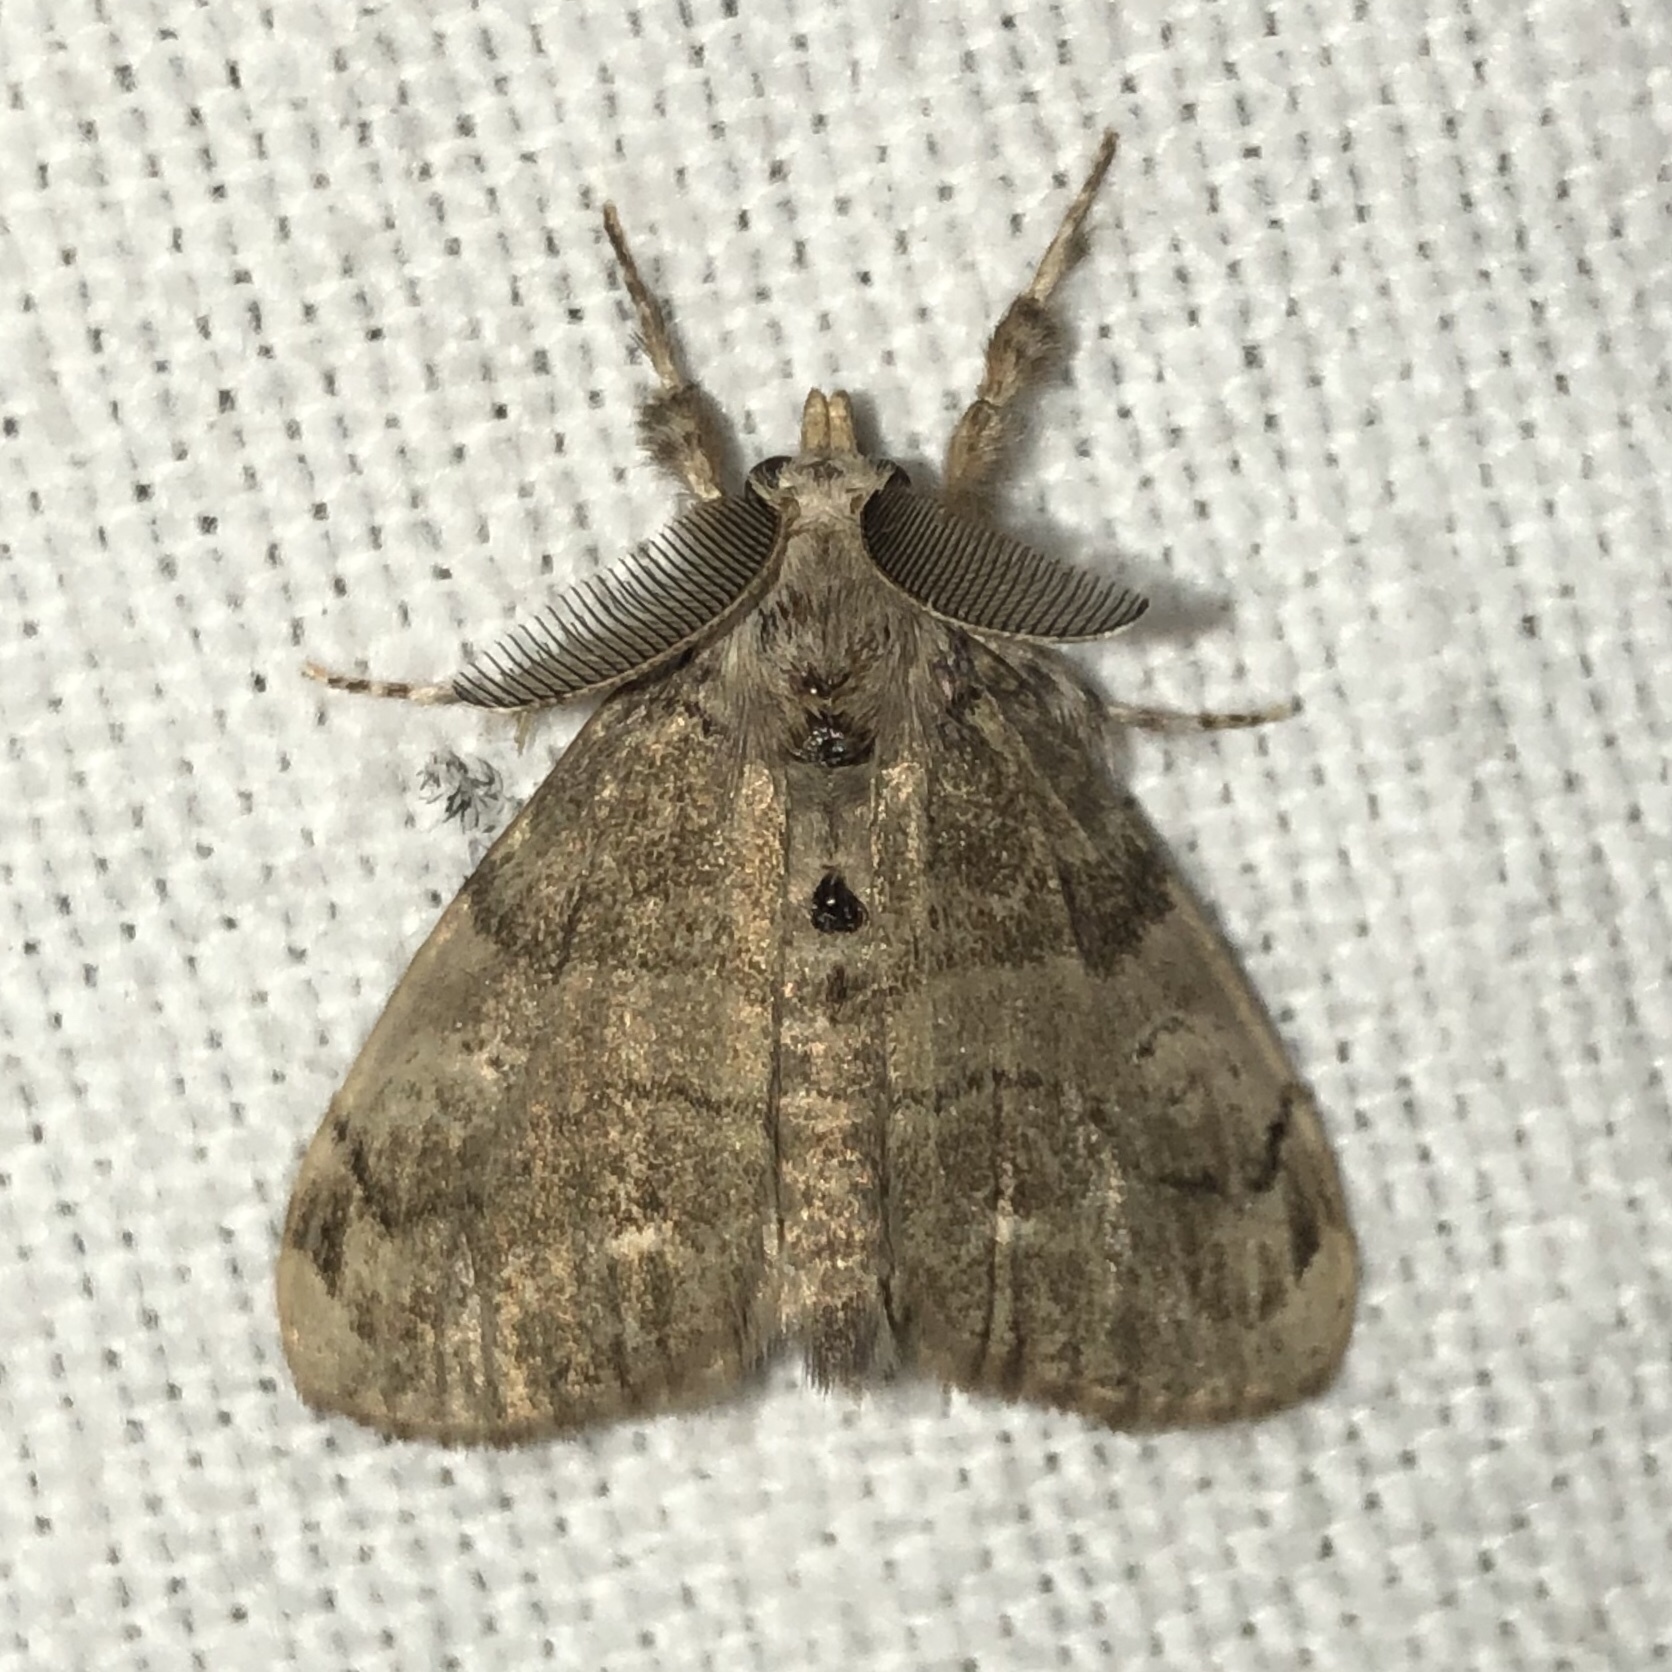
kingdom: Animalia
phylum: Arthropoda
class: Insecta
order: Lepidoptera
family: Erebidae
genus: Orgyia
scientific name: Orgyia leucostigma
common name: White-marked tussock moth
